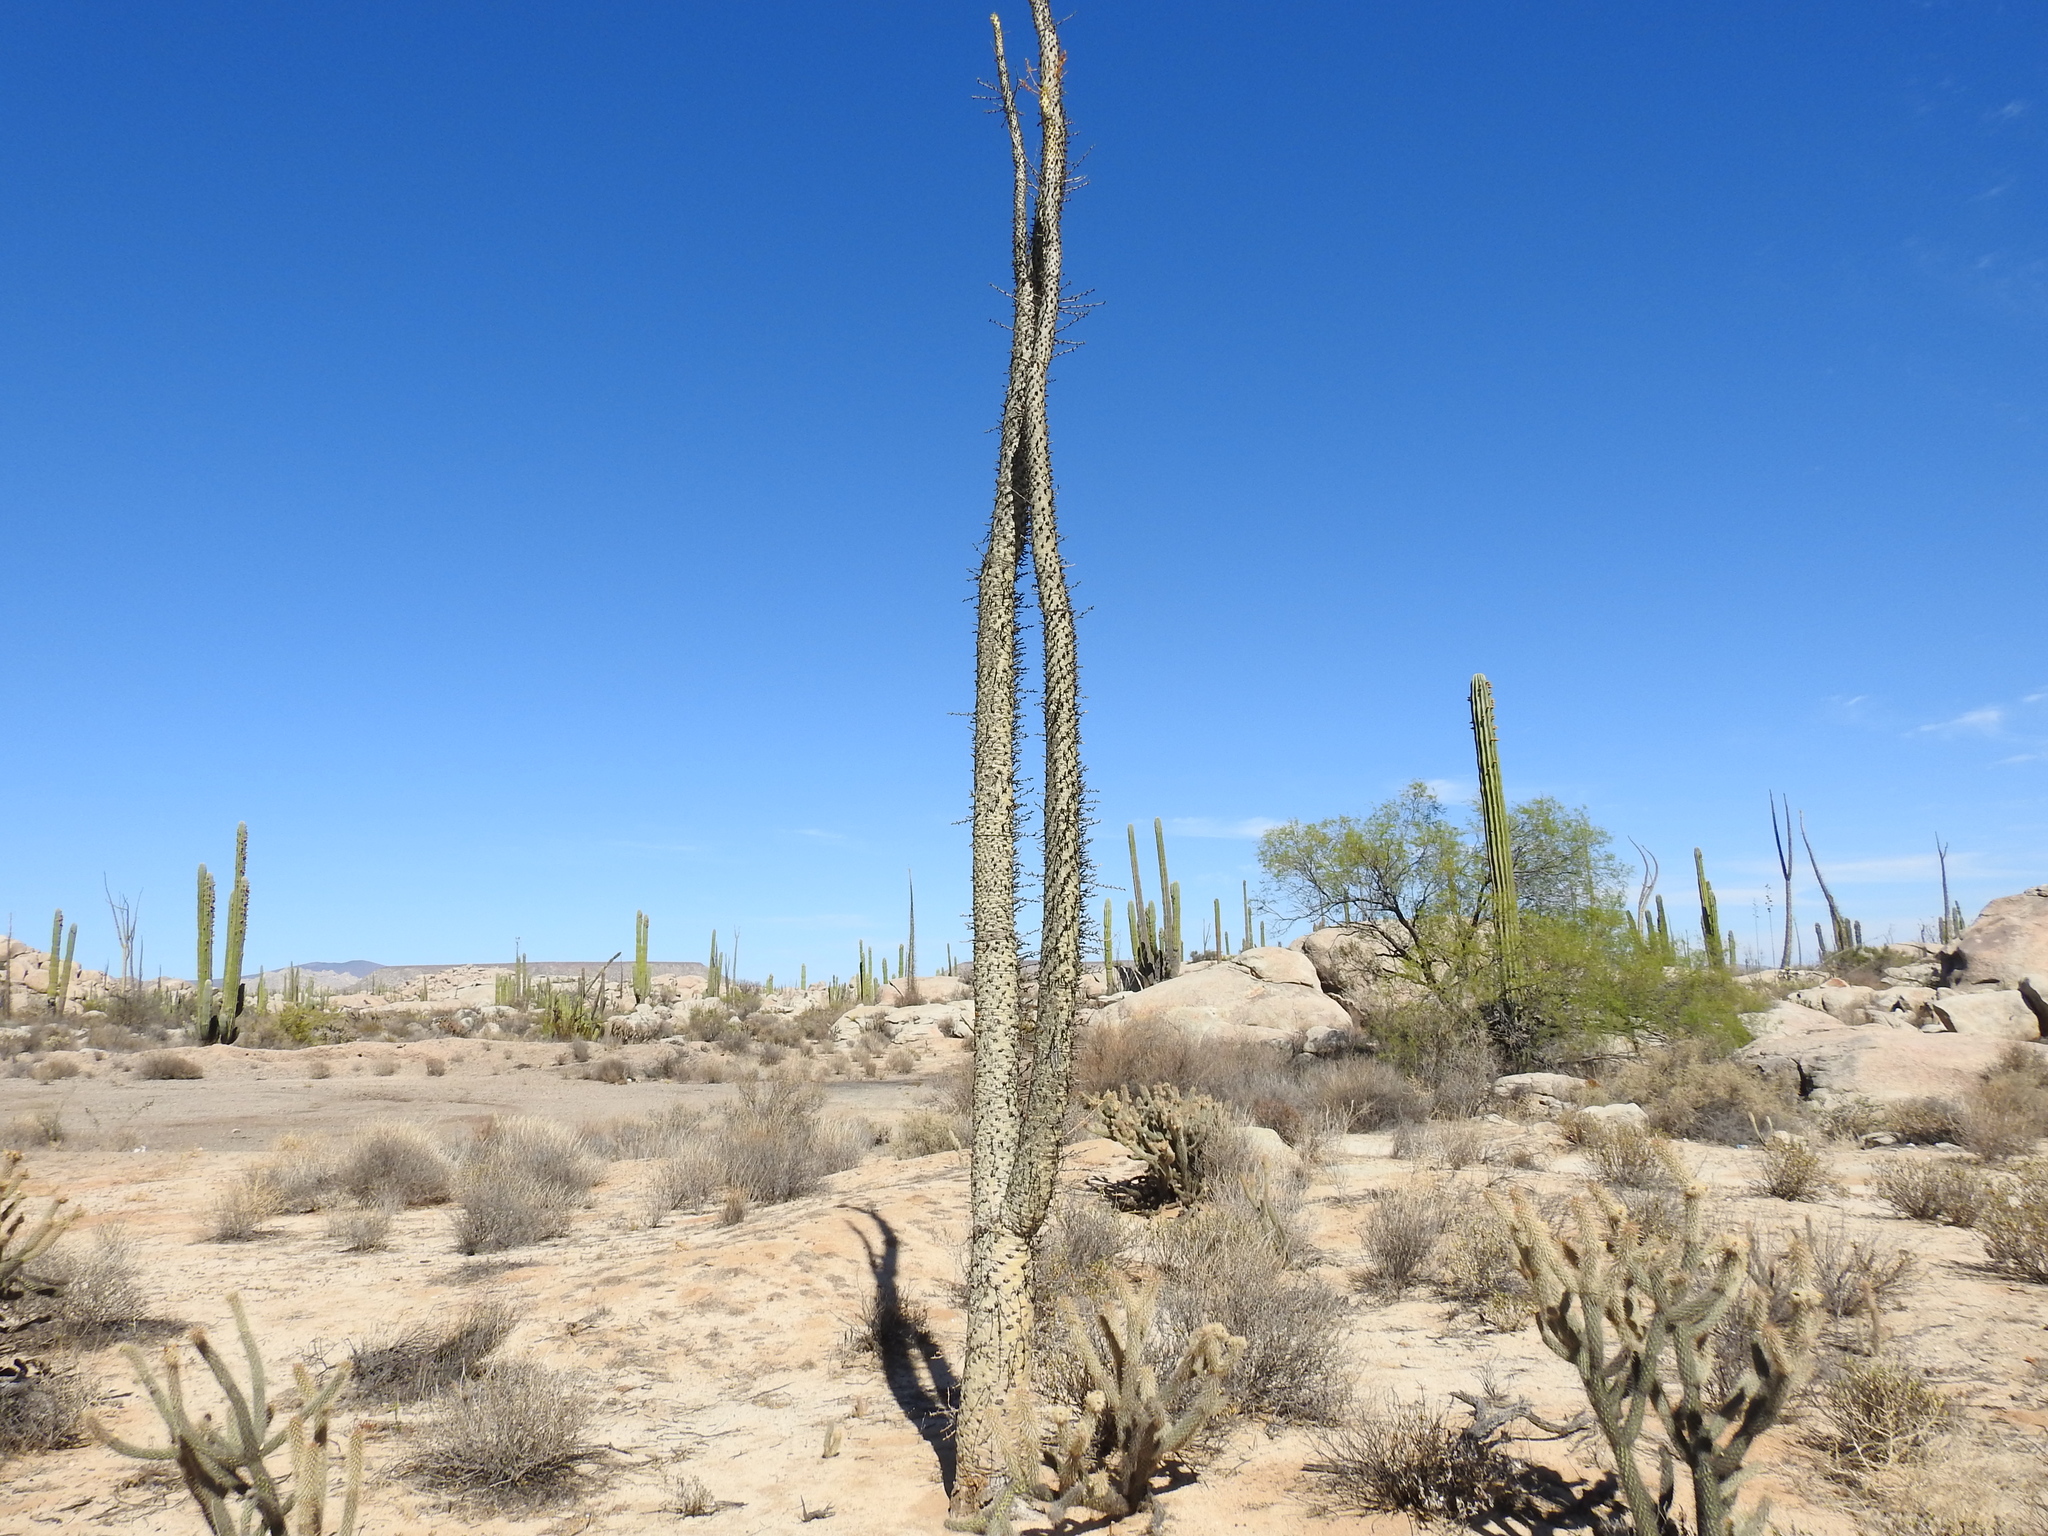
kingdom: Plantae
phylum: Tracheophyta
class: Magnoliopsida
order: Ericales
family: Fouquieriaceae
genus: Fouquieria
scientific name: Fouquieria columnaris
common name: Boojumtree
